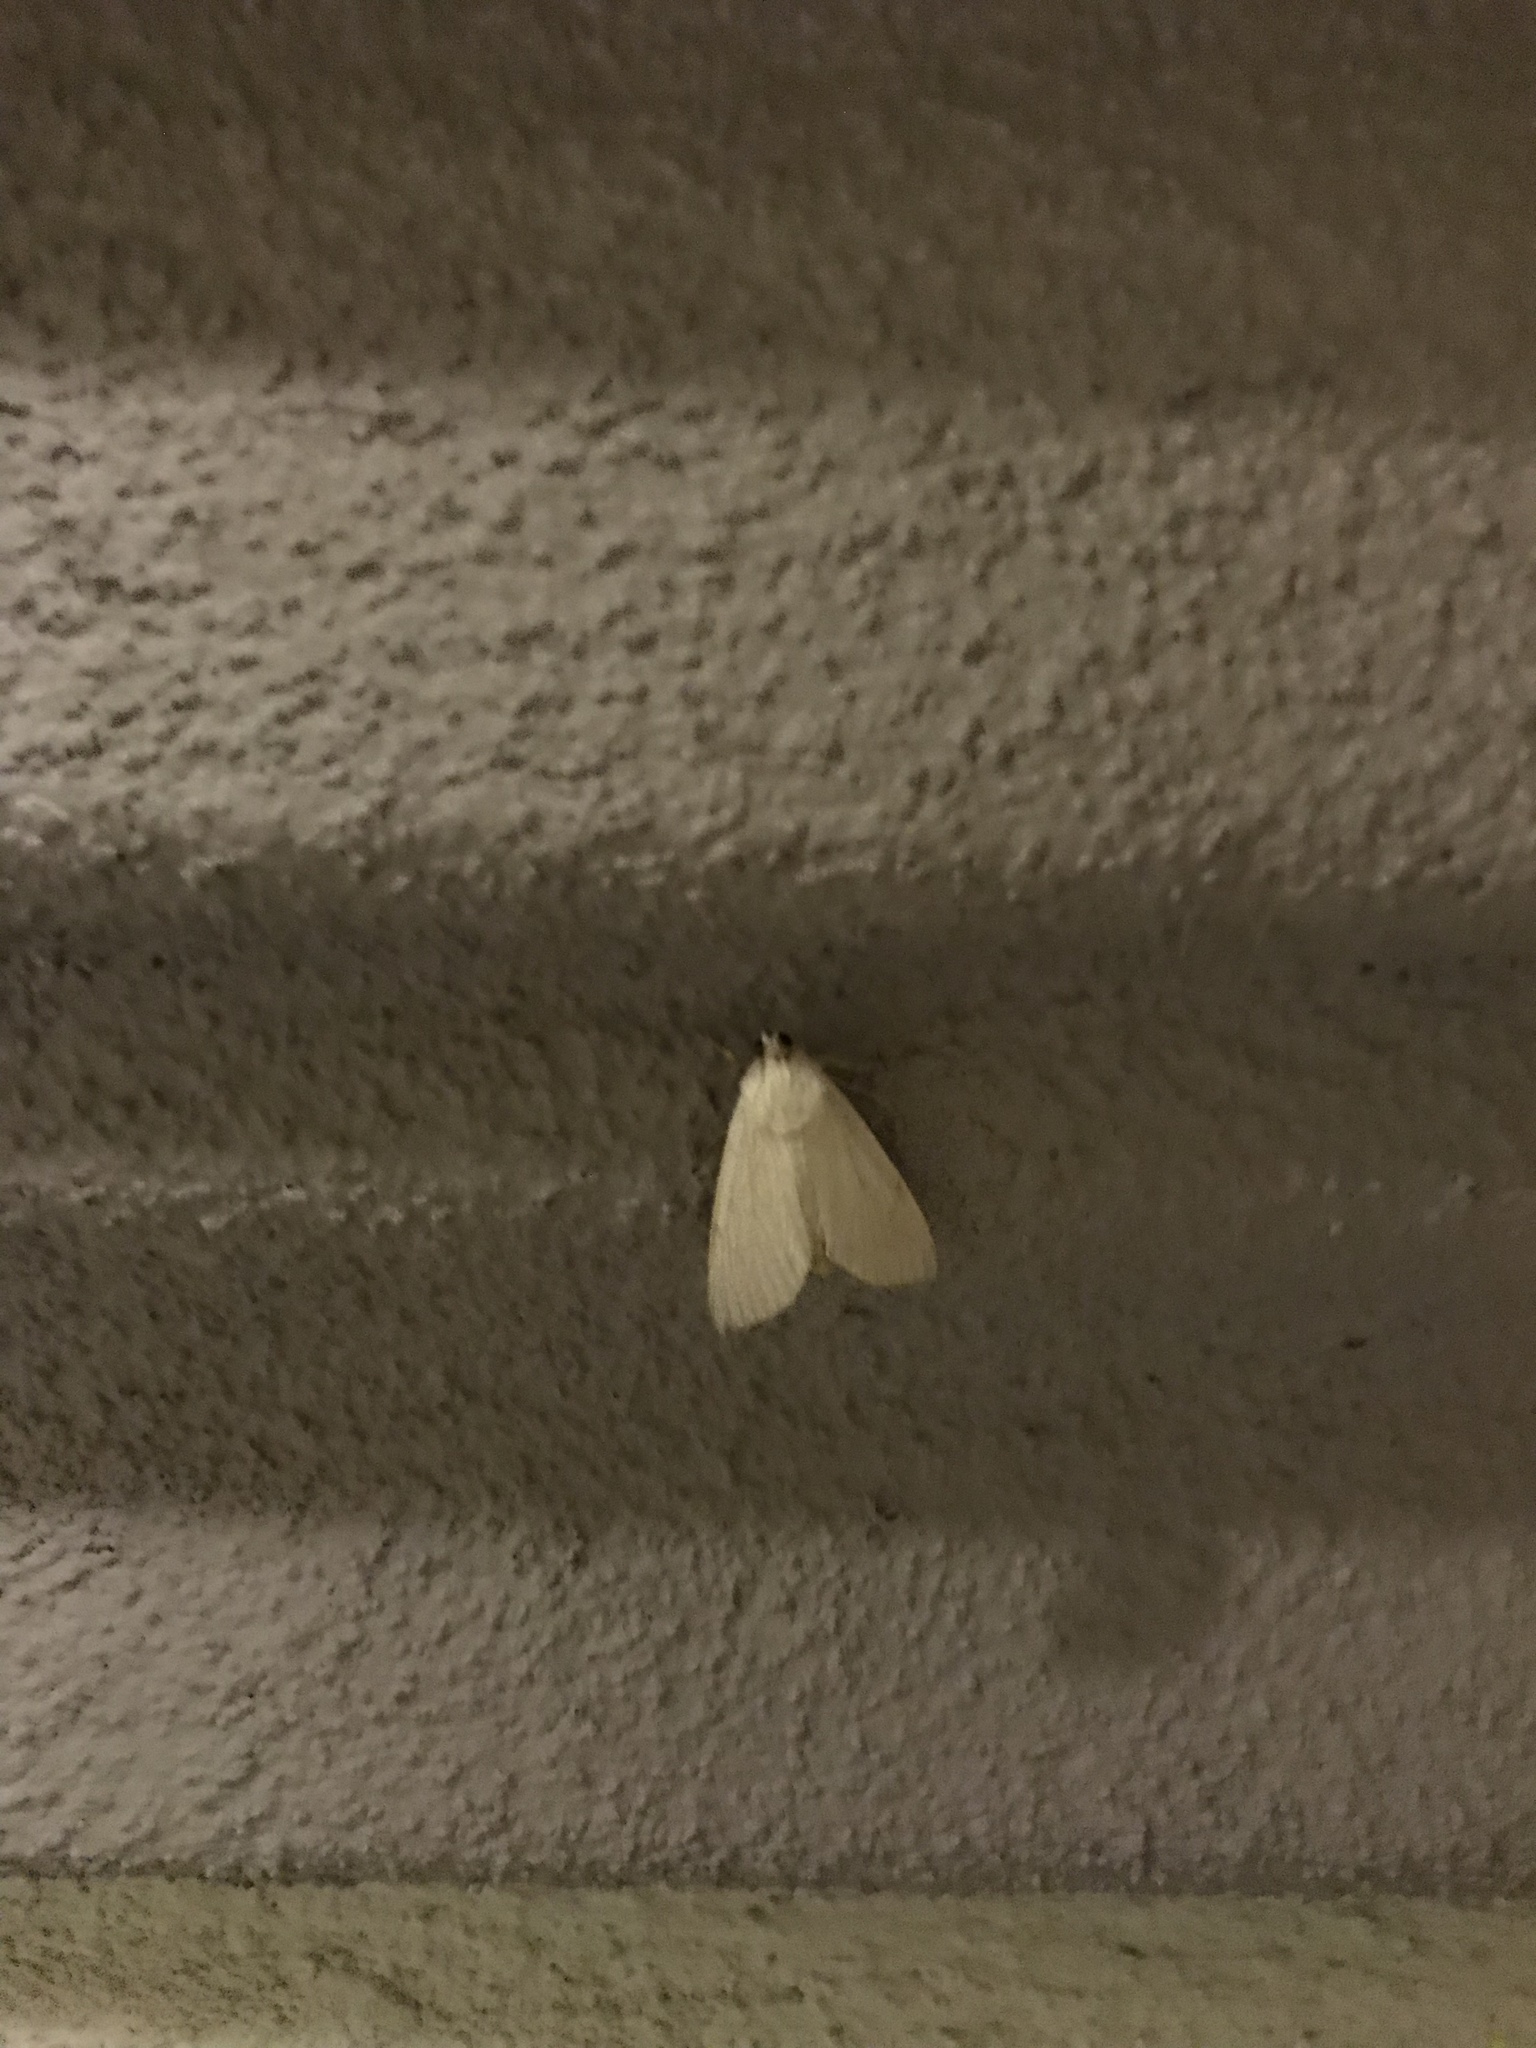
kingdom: Animalia
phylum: Arthropoda
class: Insecta
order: Lepidoptera
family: Erebidae
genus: Litoprosopus
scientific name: Litoprosopus coachella
